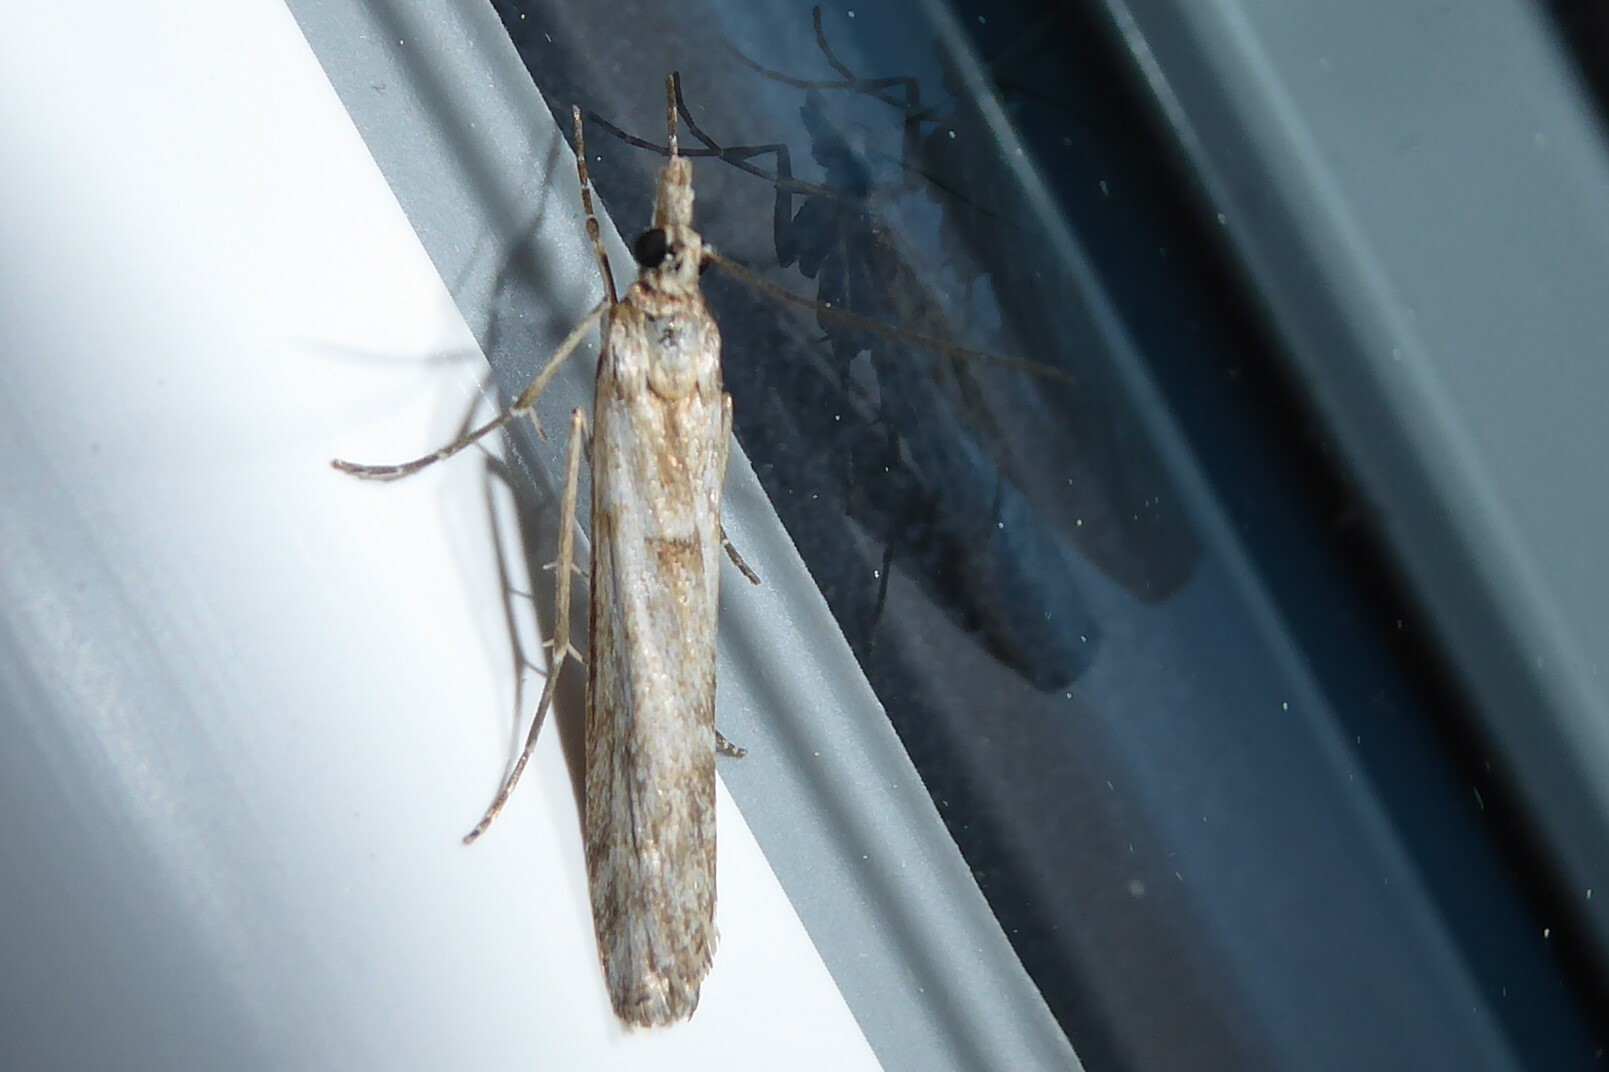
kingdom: Animalia
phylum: Arthropoda
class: Insecta
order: Lepidoptera
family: Crambidae
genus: Eudonia
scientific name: Eudonia leptalea
